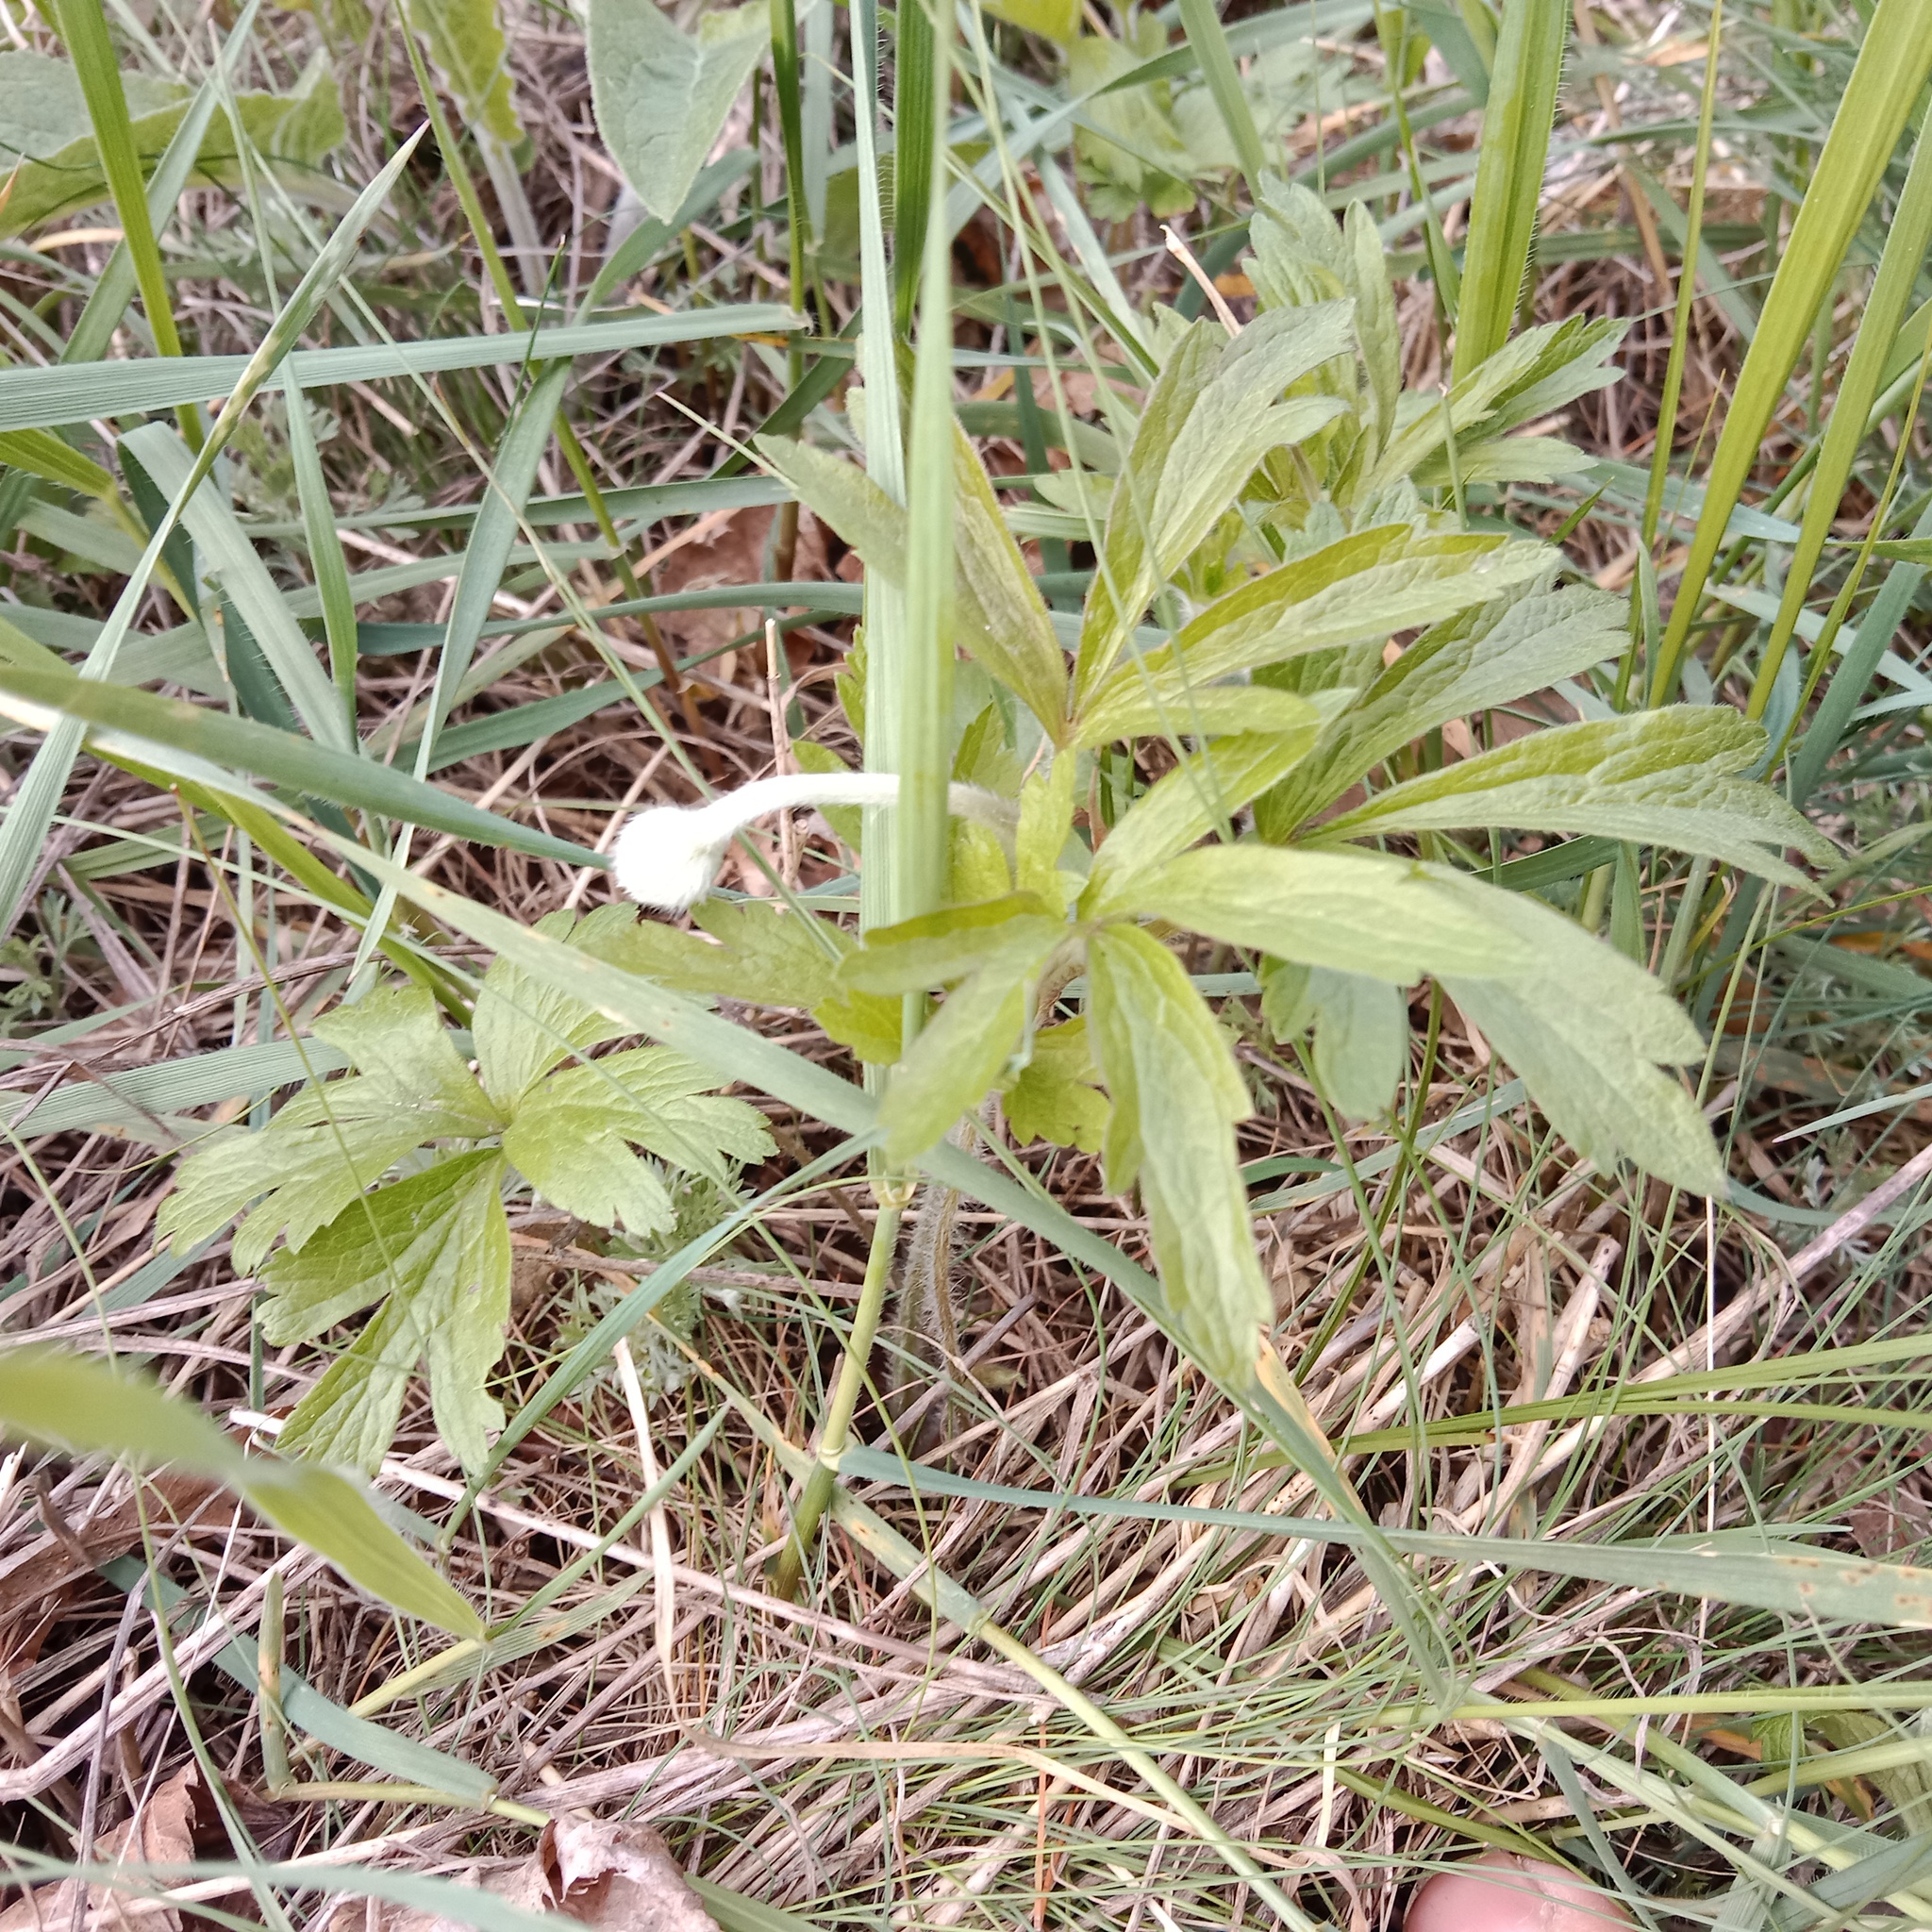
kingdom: Plantae
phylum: Tracheophyta
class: Magnoliopsida
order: Ranunculales
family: Ranunculaceae
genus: Anemone
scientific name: Anemone sylvestris
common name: Snowdrop anemone
